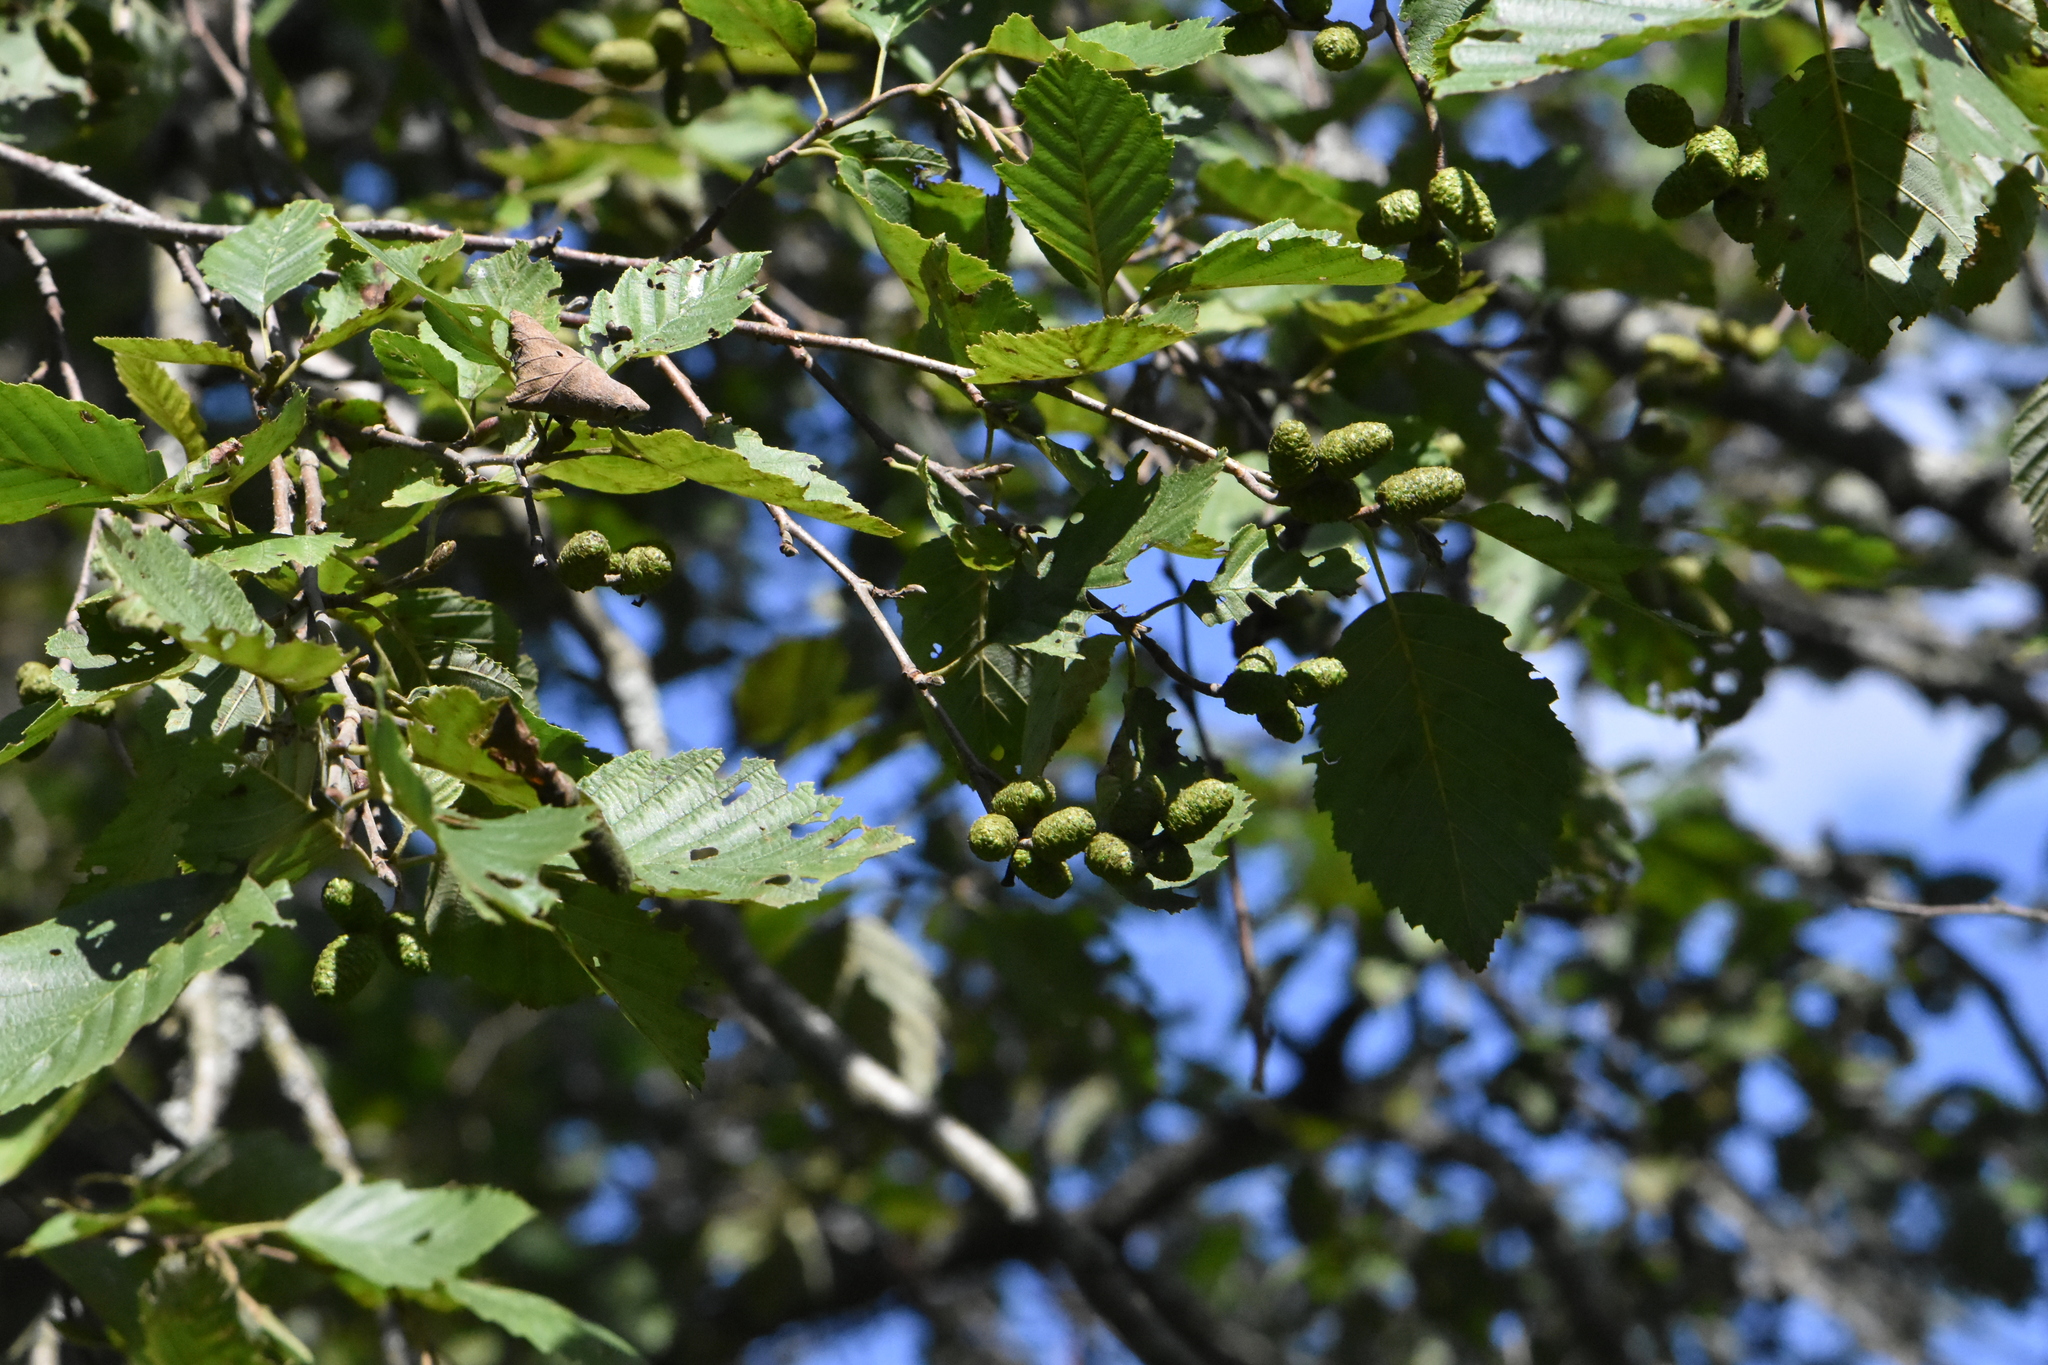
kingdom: Plantae
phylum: Tracheophyta
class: Magnoliopsida
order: Fagales
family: Betulaceae
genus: Alnus
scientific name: Alnus incana
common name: Grey alder
